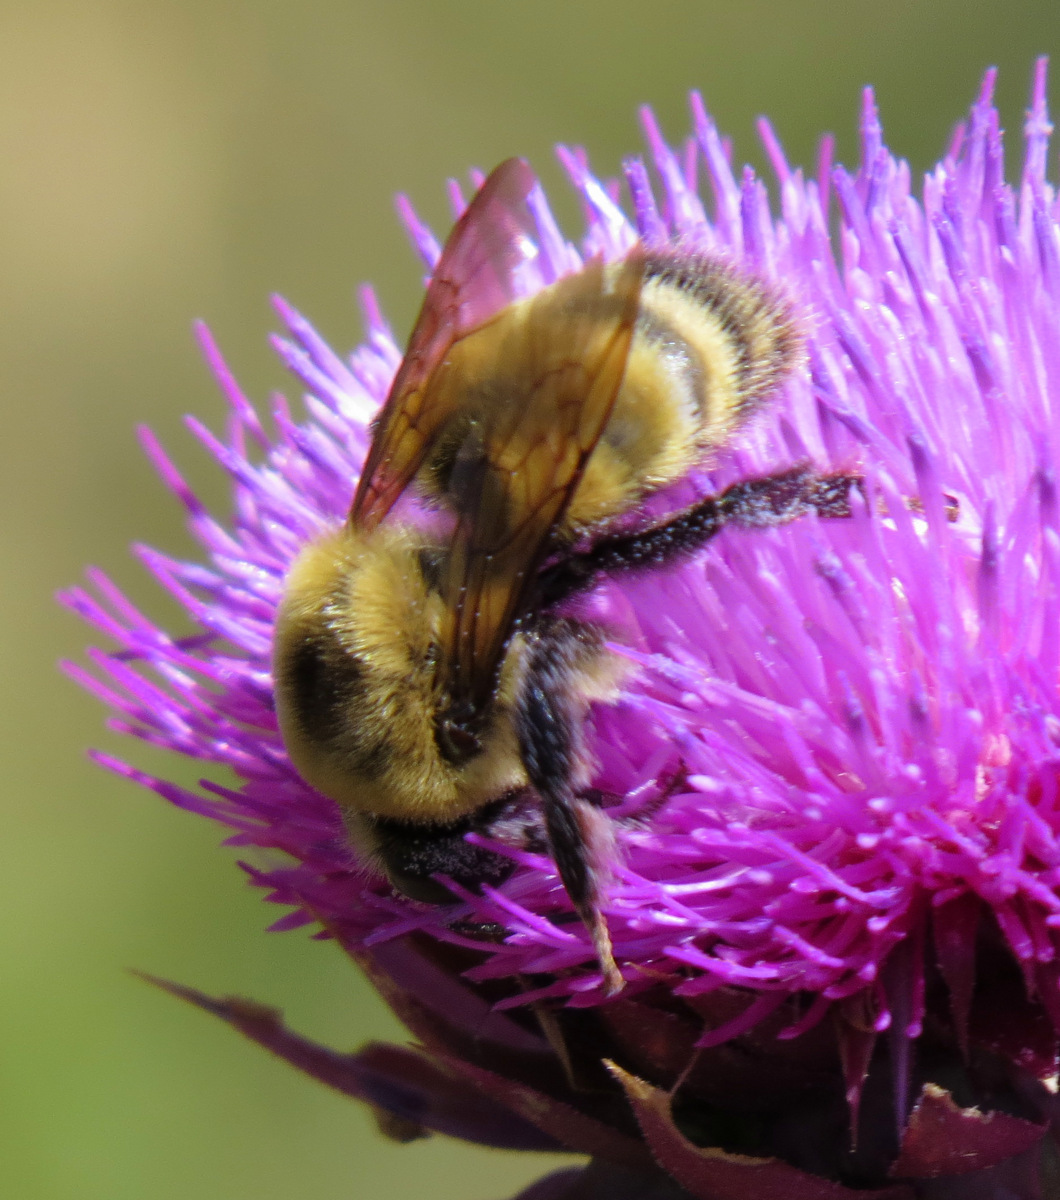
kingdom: Animalia
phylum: Arthropoda
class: Insecta
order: Hymenoptera
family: Apidae
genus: Bombus
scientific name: Bombus nevadensis
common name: Nevada bumble bee
